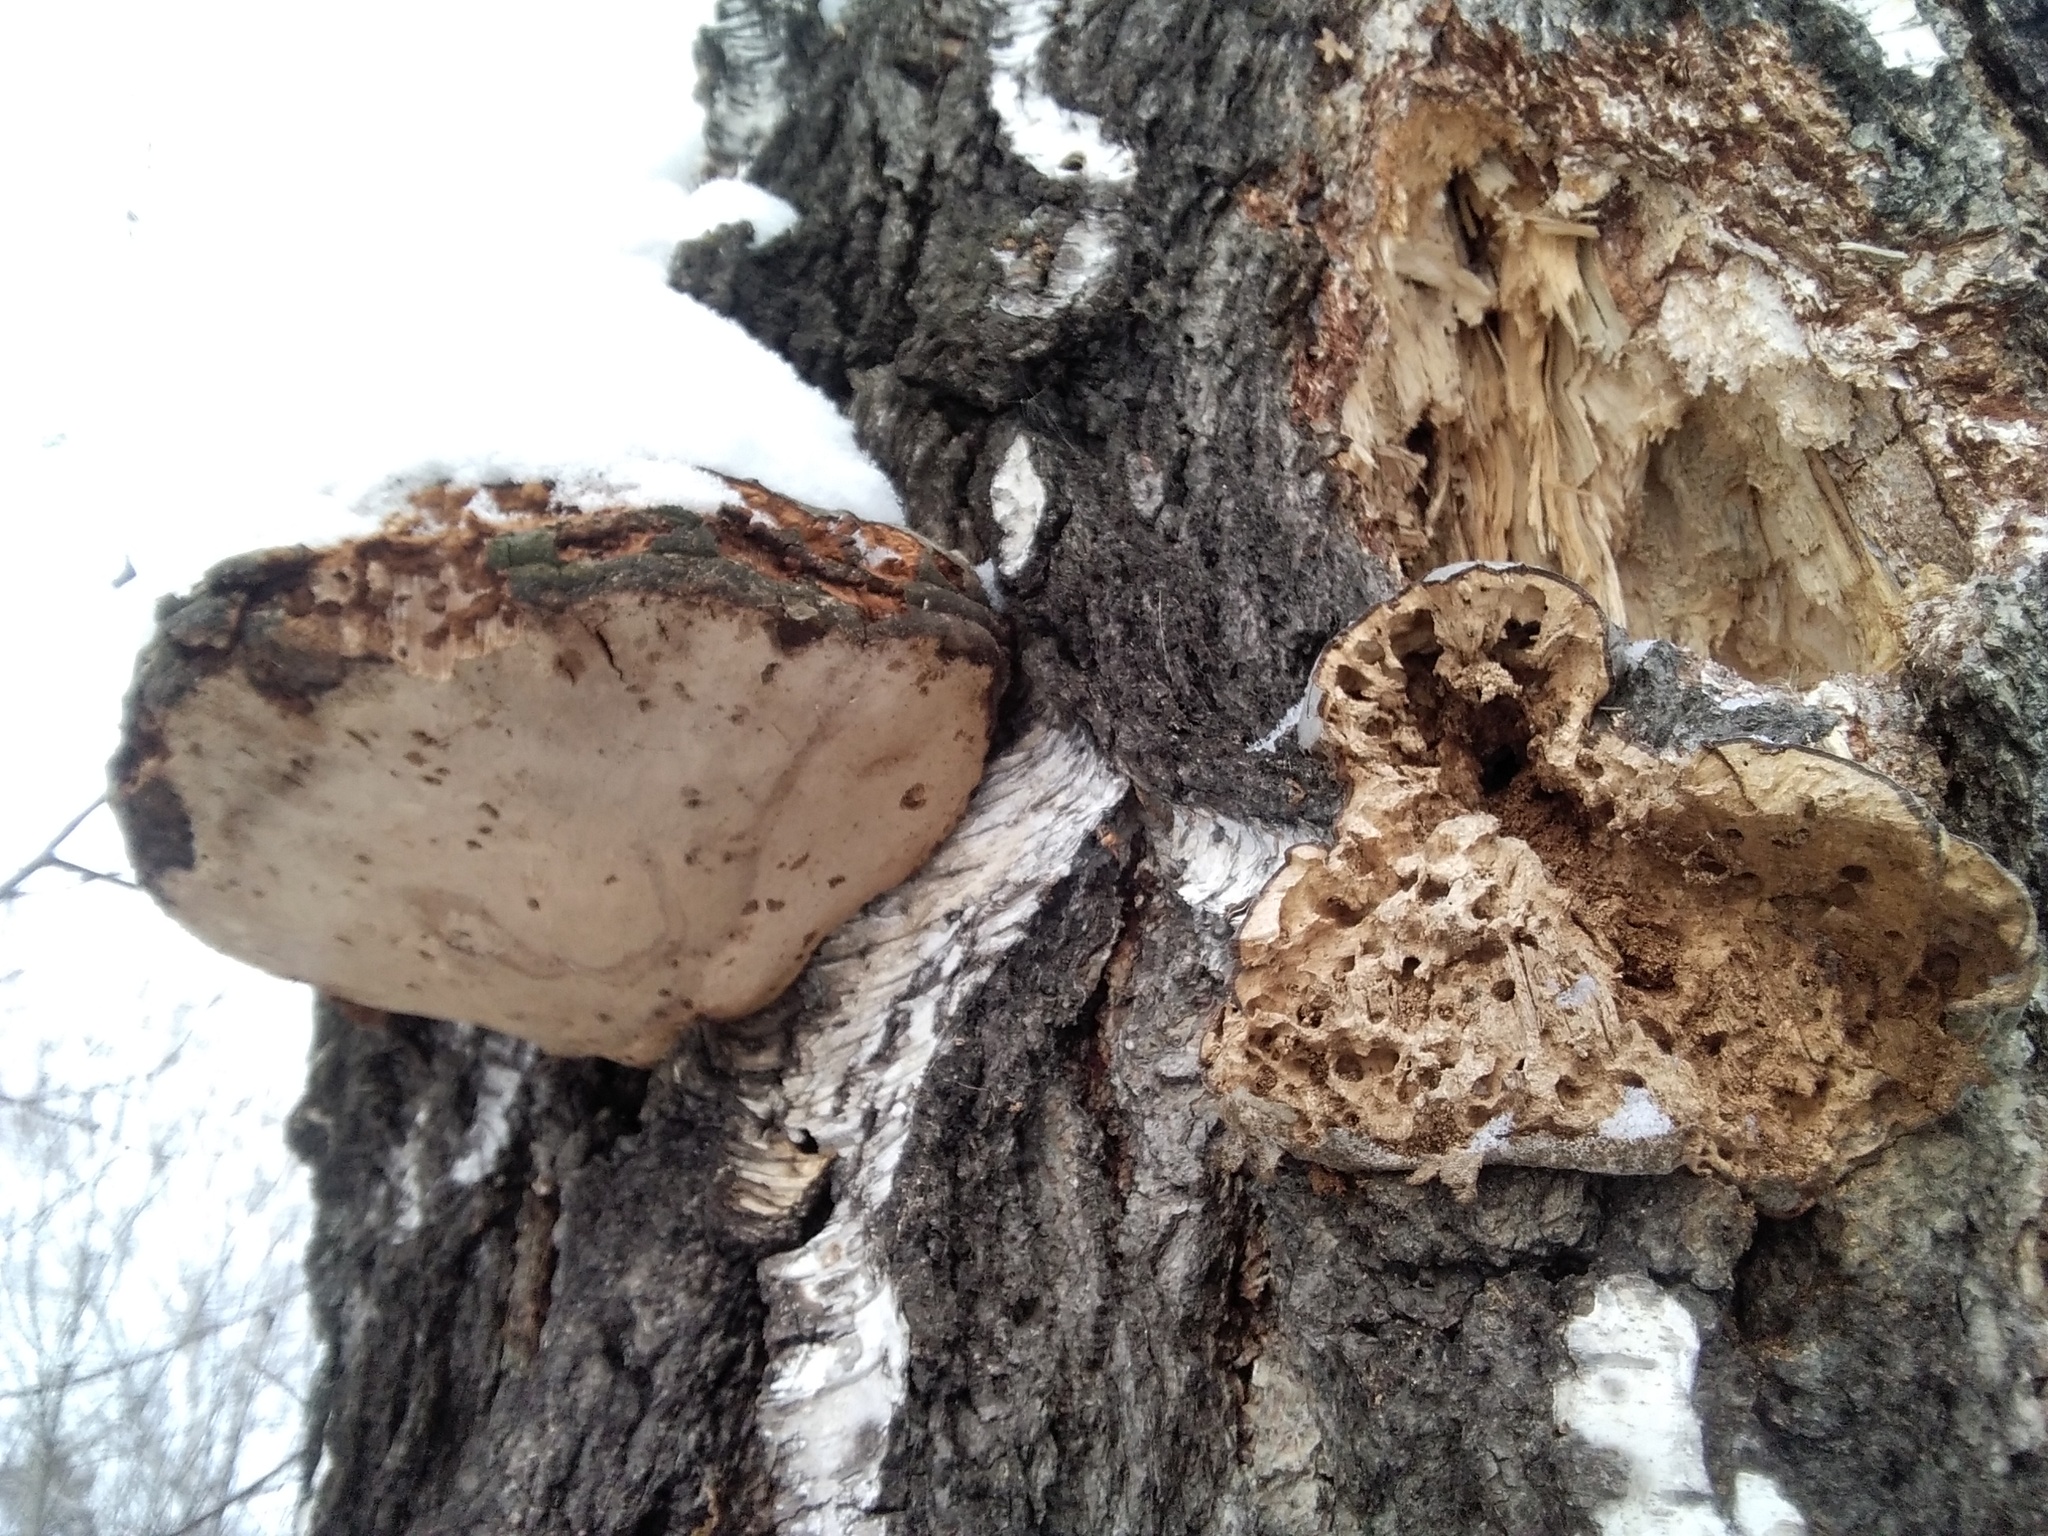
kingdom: Fungi
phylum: Basidiomycota
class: Agaricomycetes
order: Polyporales
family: Polyporaceae
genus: Fomes
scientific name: Fomes fomentarius
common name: Hoof fungus
